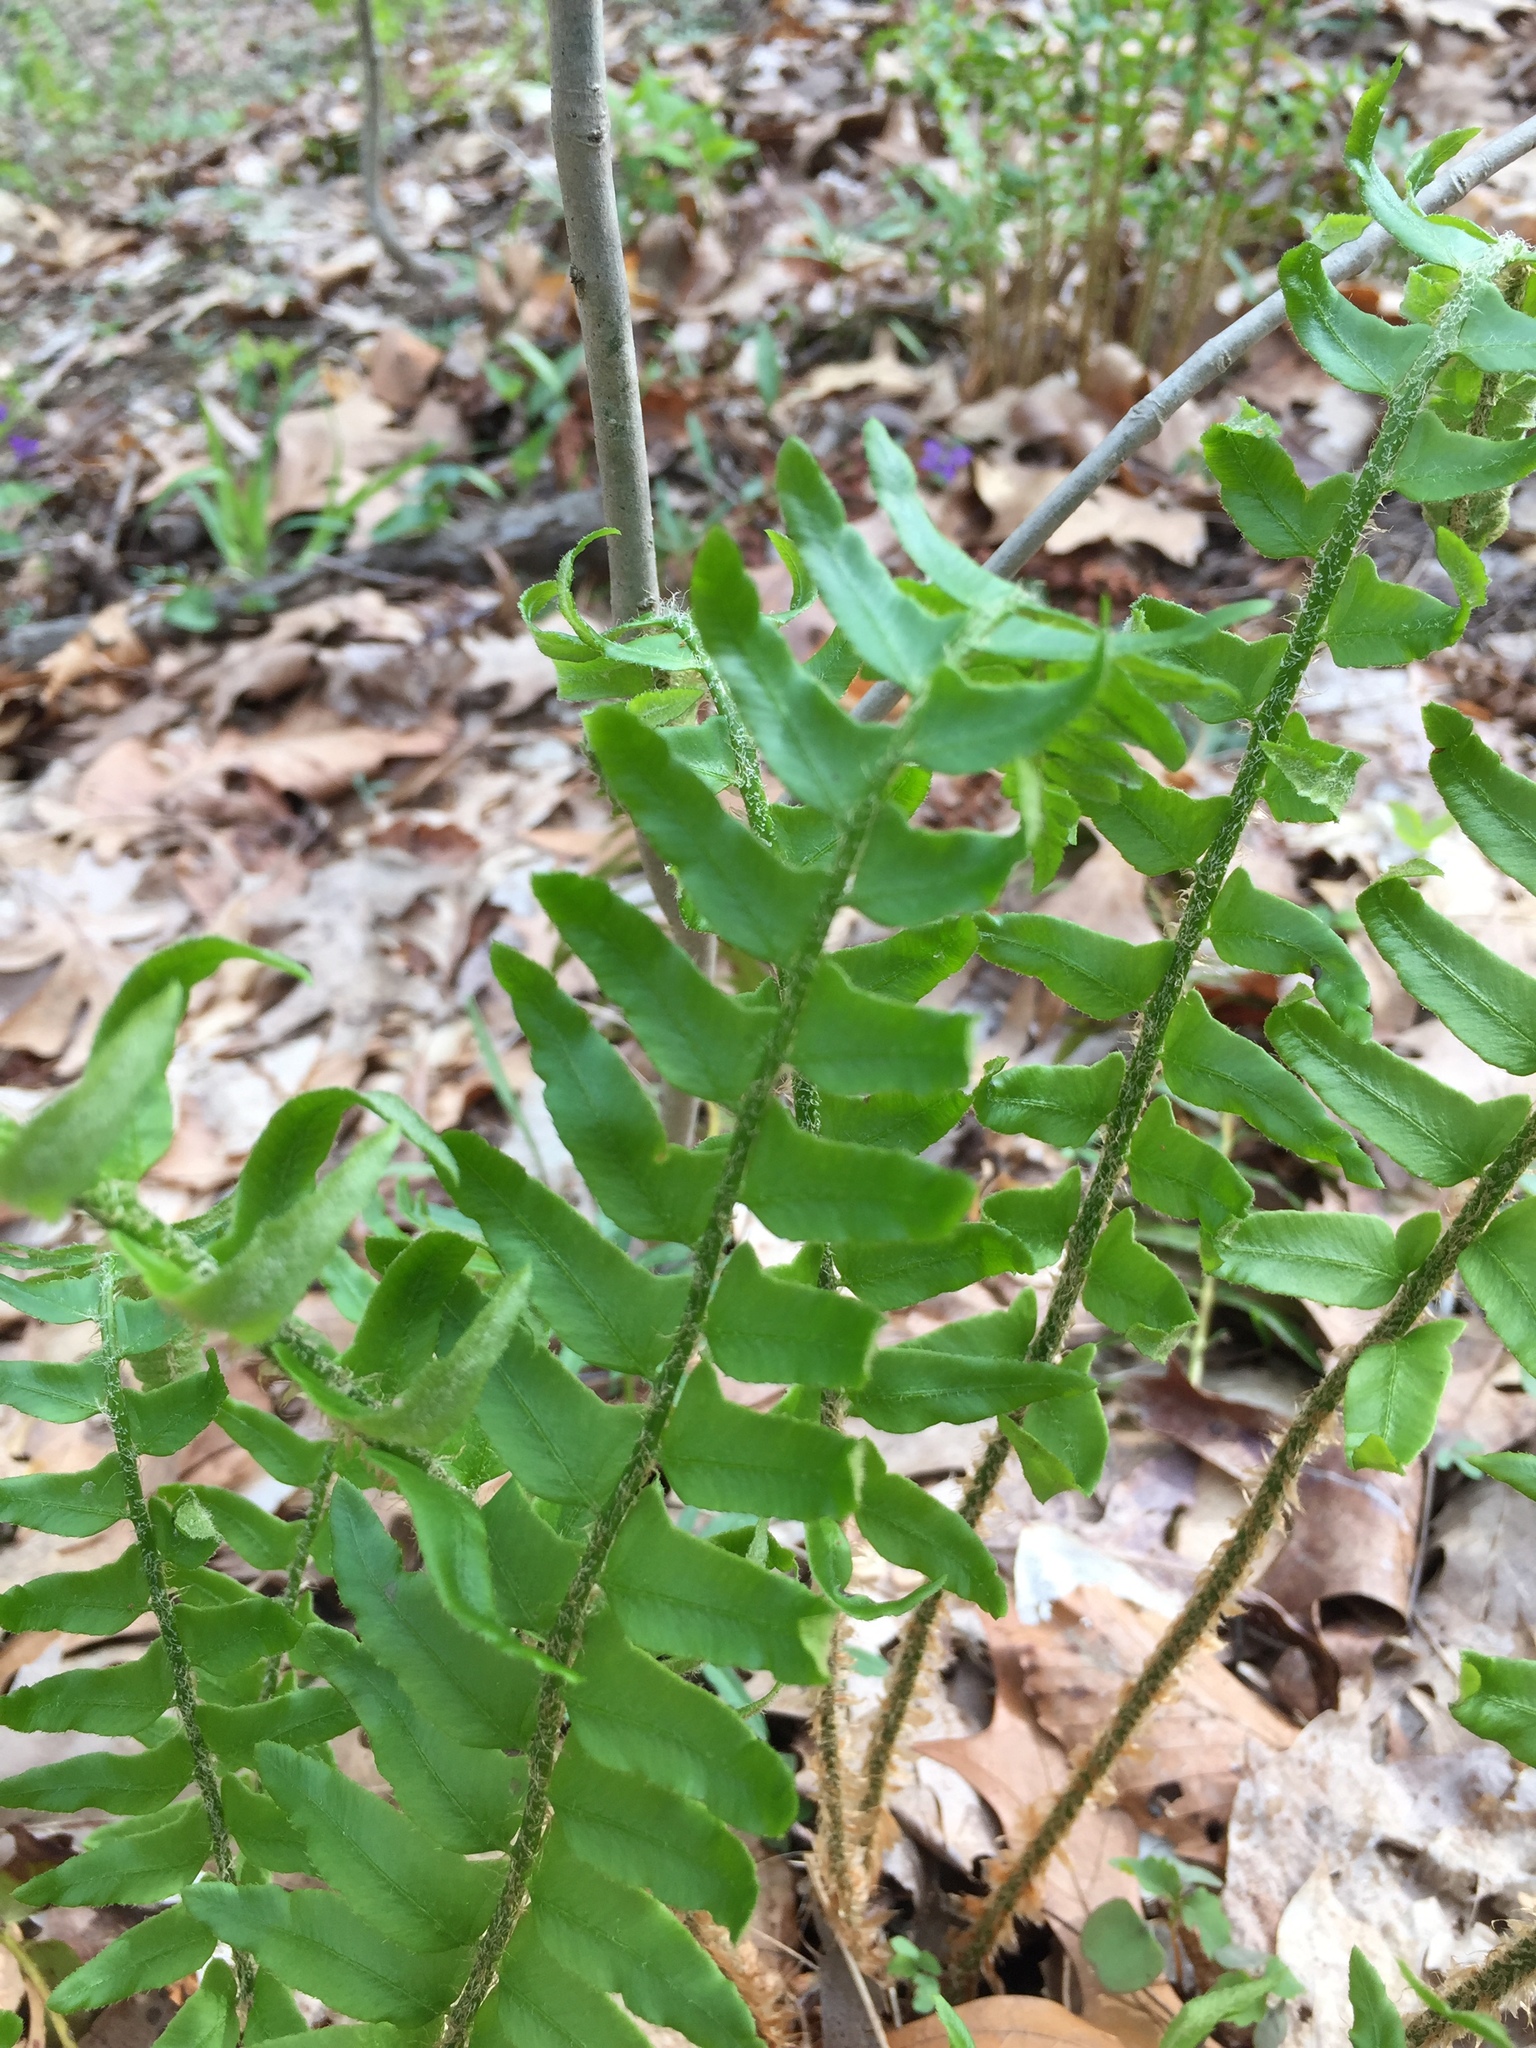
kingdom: Plantae
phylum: Tracheophyta
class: Polypodiopsida
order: Polypodiales
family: Dryopteridaceae
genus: Polystichum
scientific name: Polystichum acrostichoides
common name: Christmas fern
